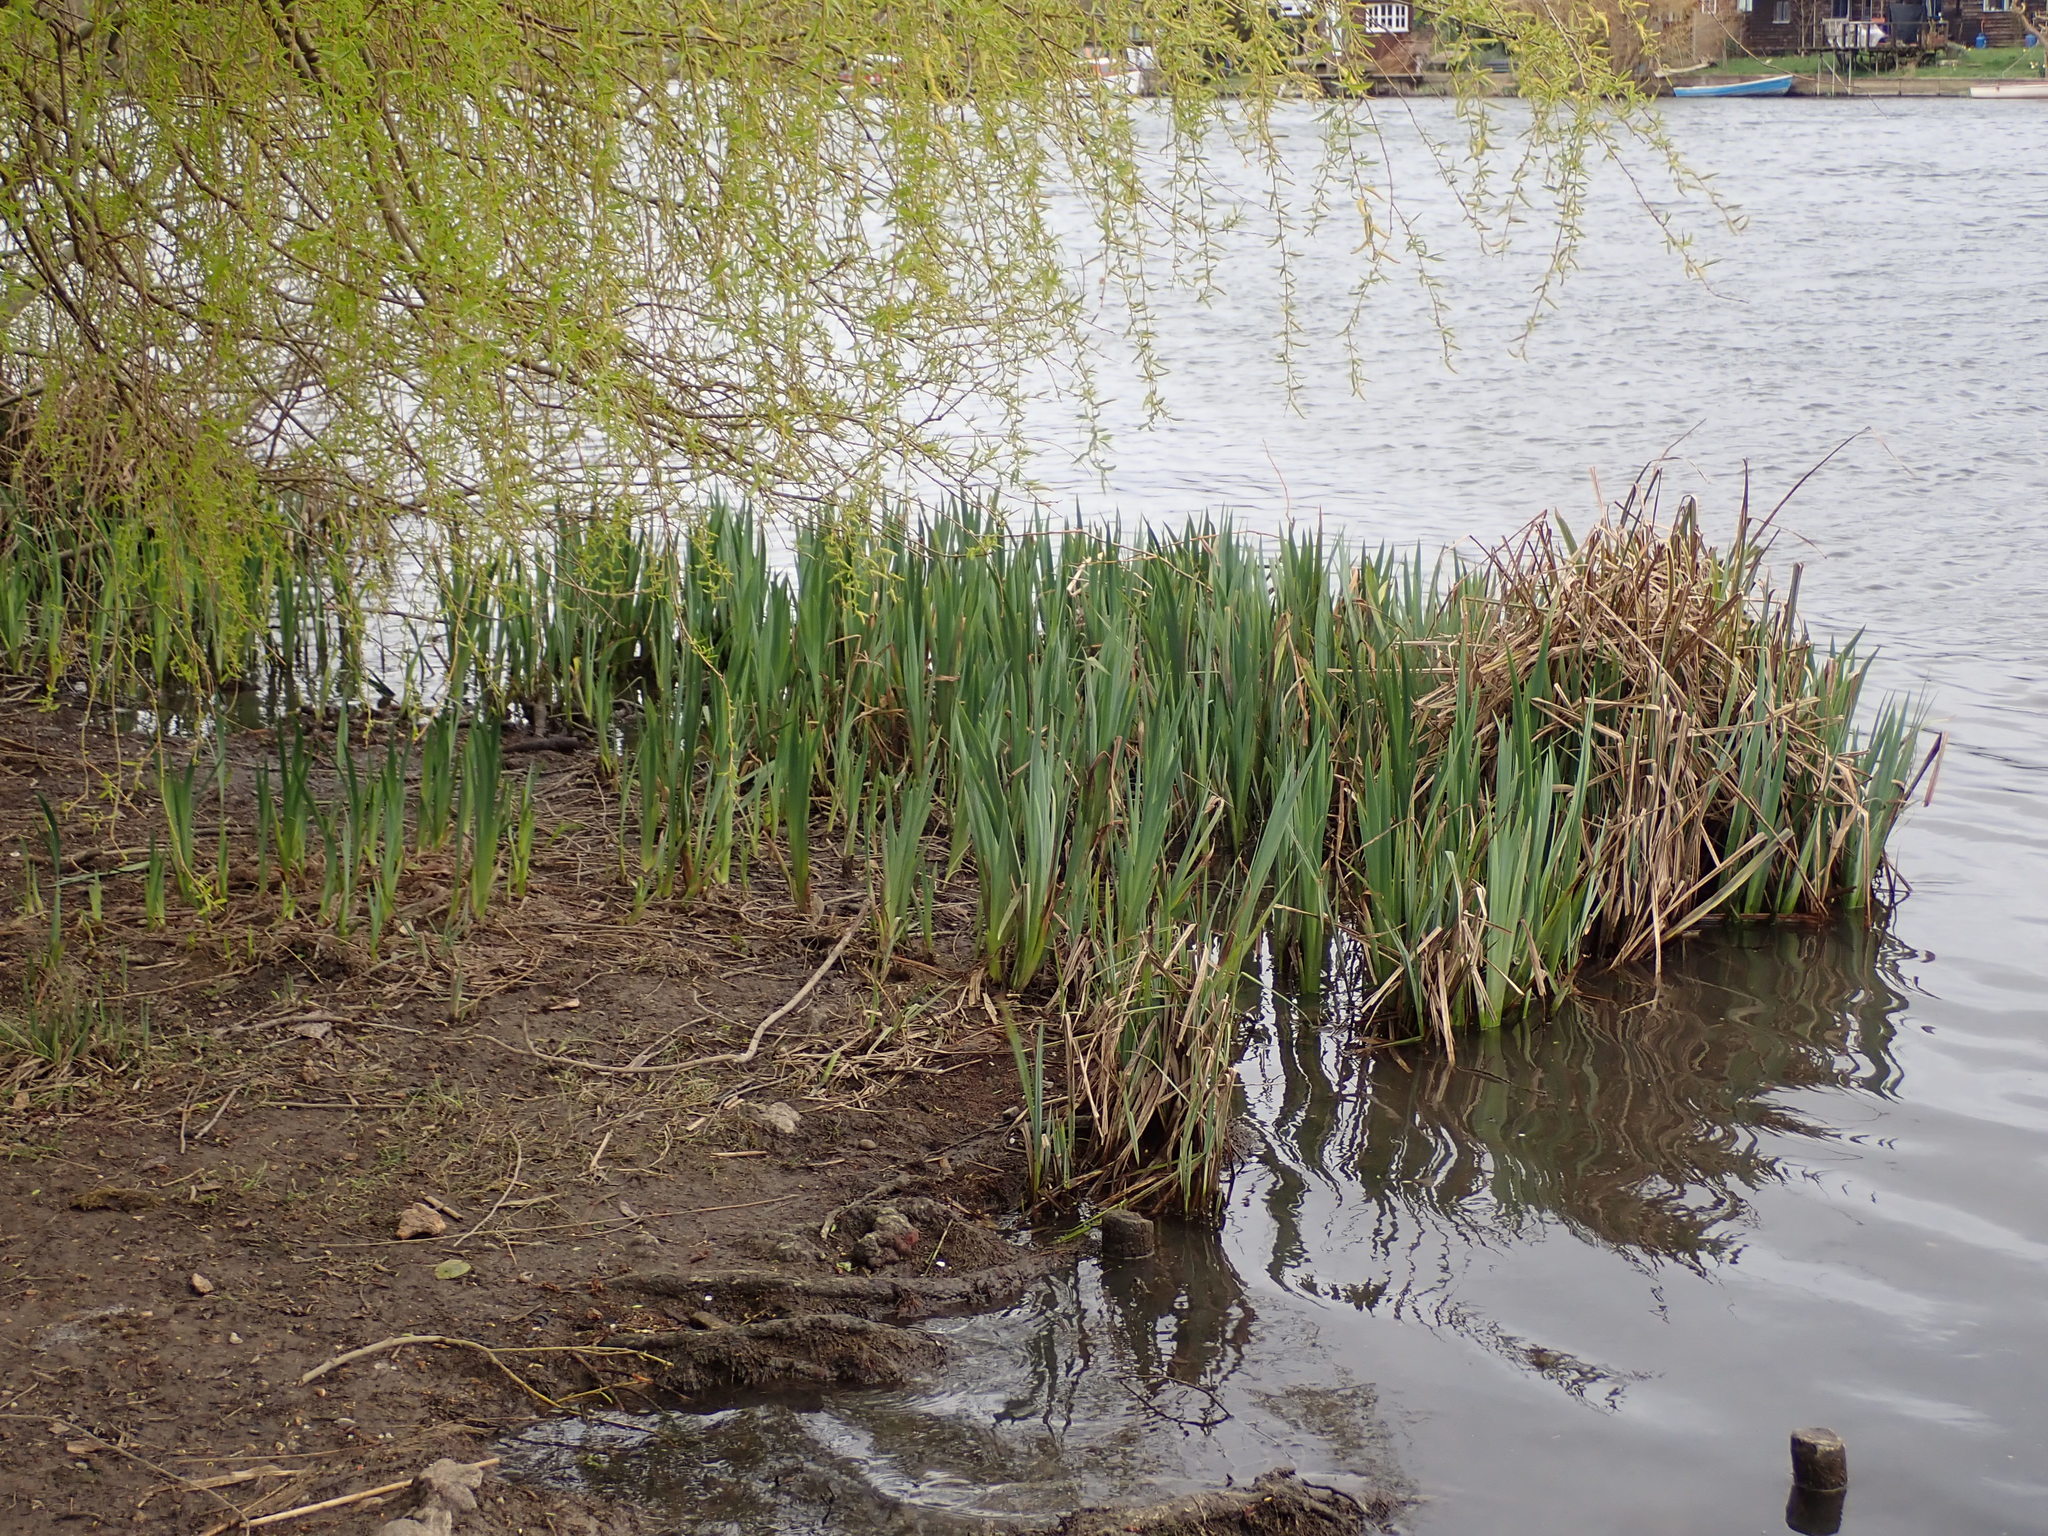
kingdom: Plantae
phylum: Tracheophyta
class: Liliopsida
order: Asparagales
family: Iridaceae
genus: Iris
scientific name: Iris pseudacorus
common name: Yellow flag
